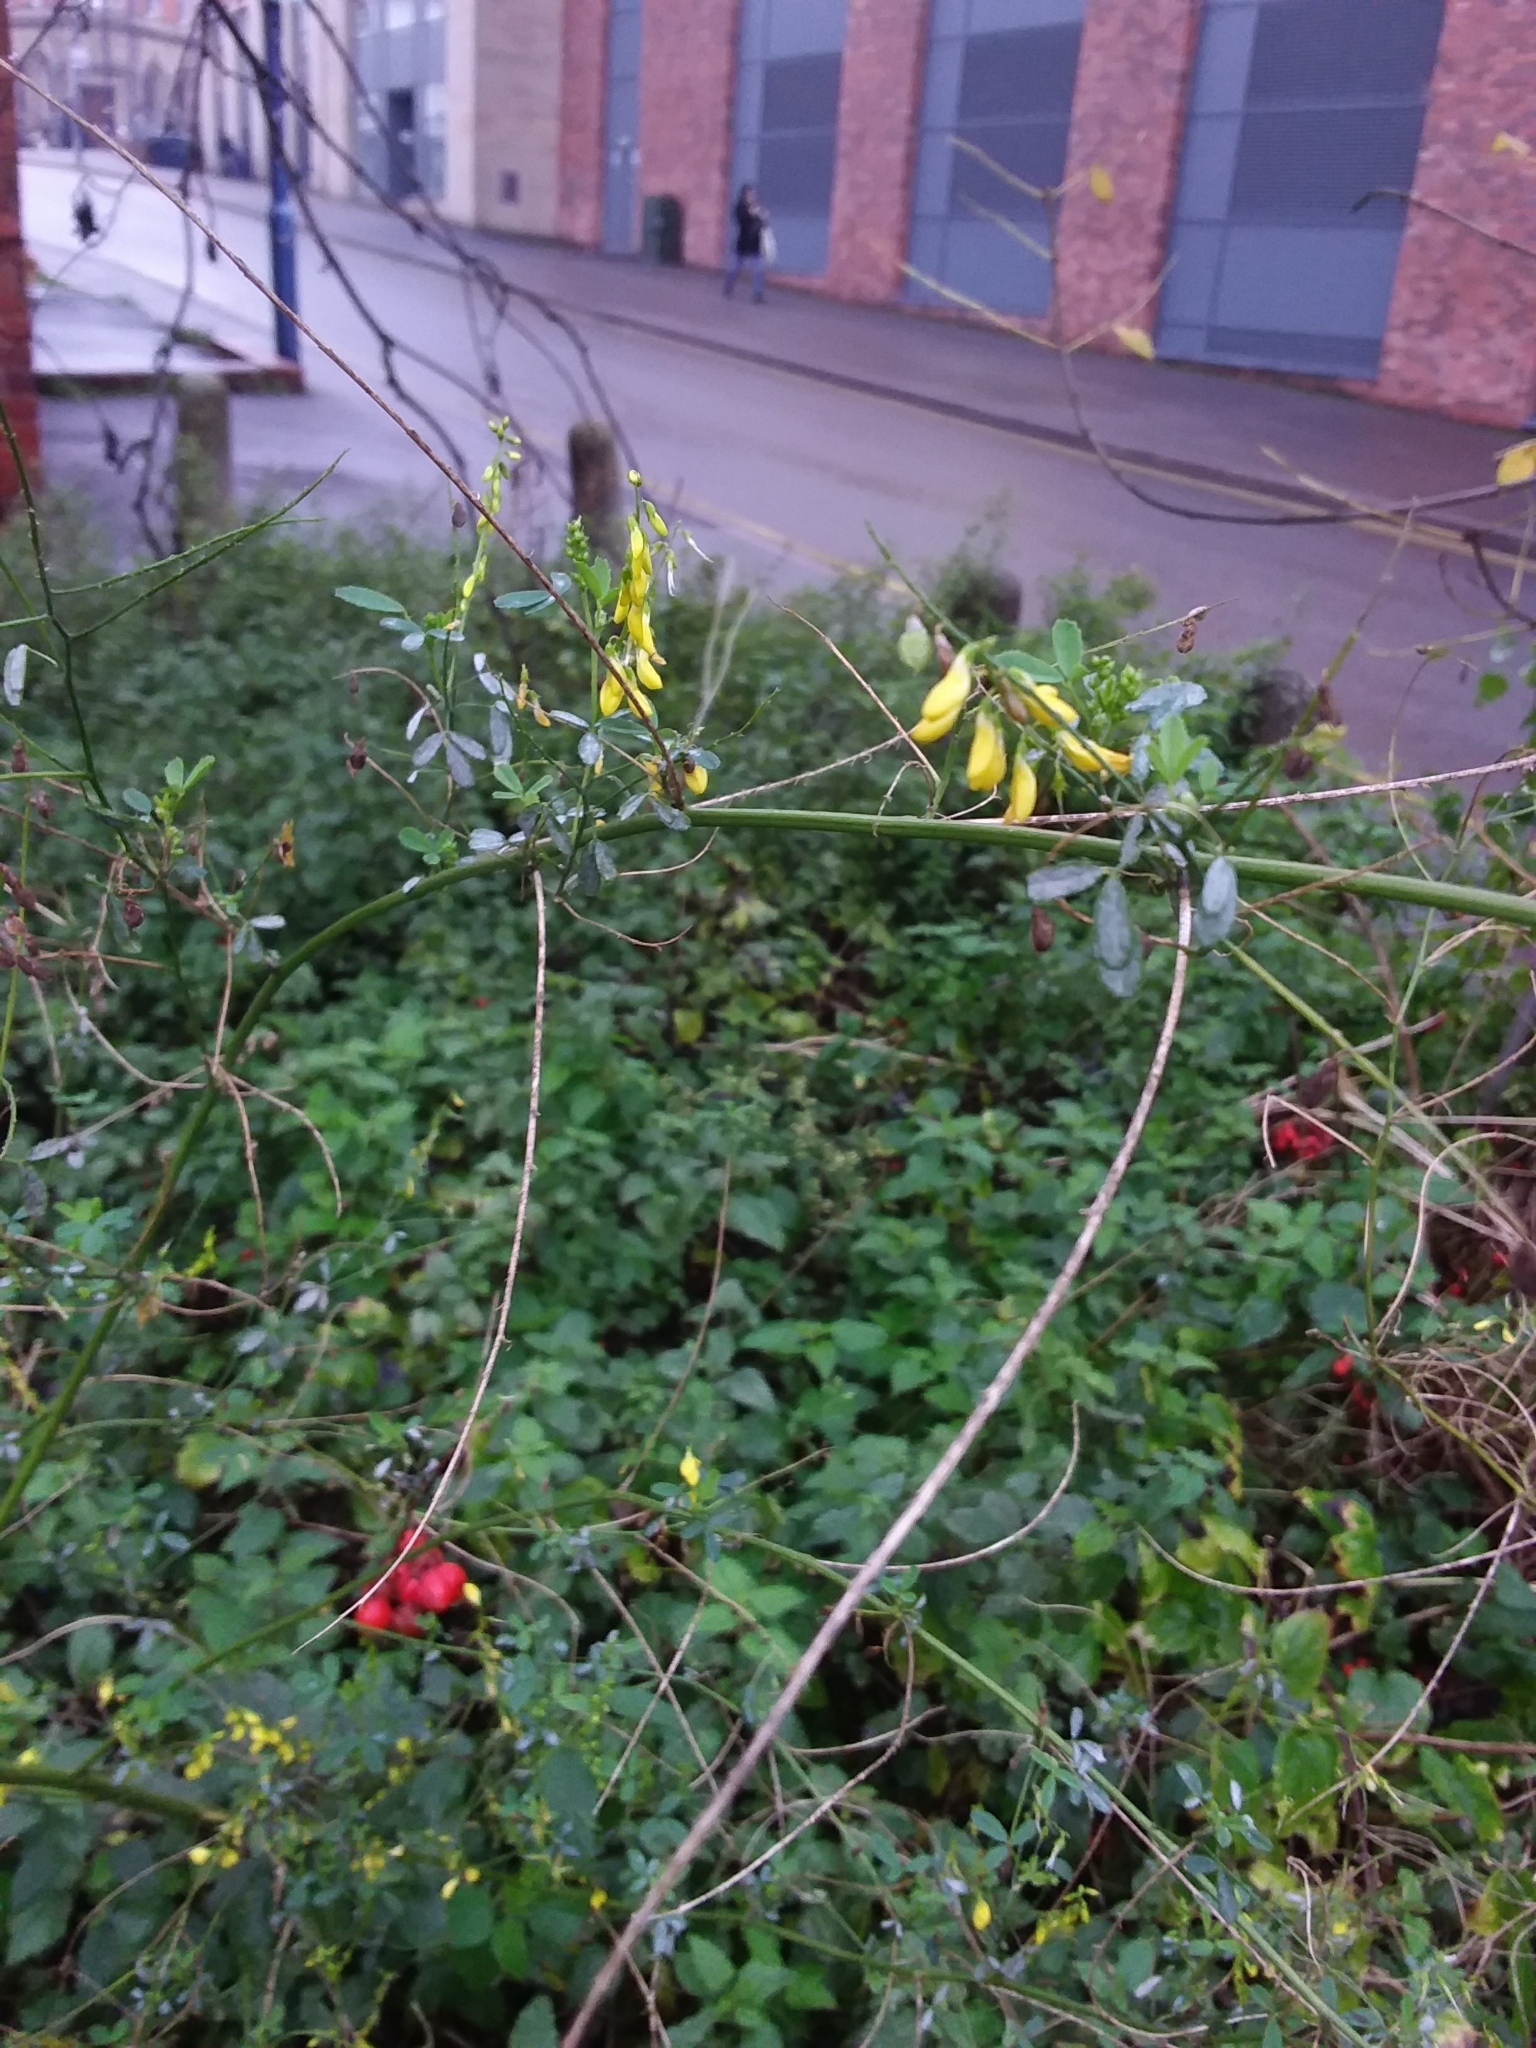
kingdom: Plantae
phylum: Tracheophyta
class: Magnoliopsida
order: Fabales
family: Fabaceae
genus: Melilotus
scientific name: Melilotus officinalis
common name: Sweetclover
